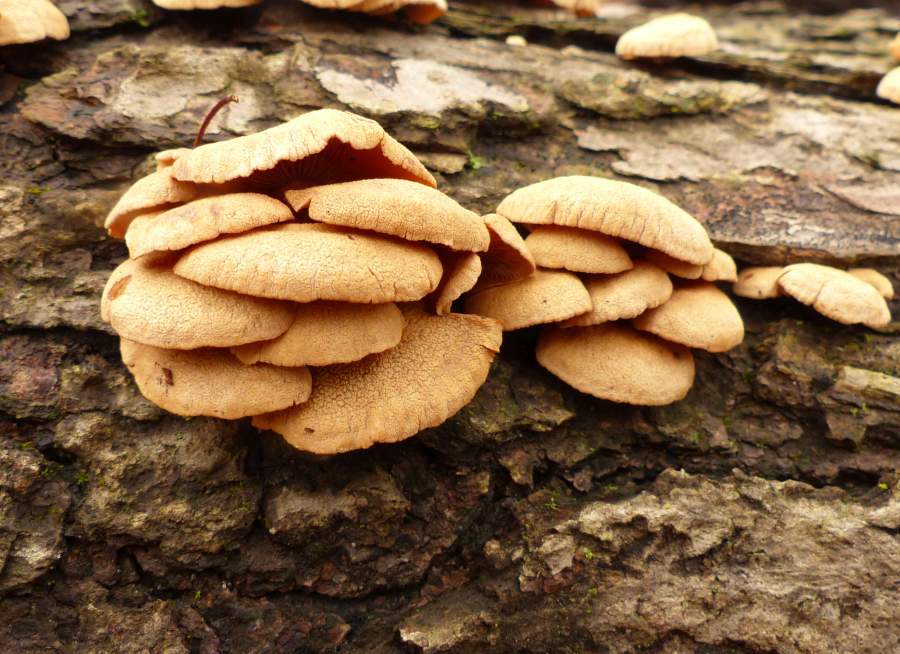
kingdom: Fungi
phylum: Basidiomycota
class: Agaricomycetes
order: Agaricales
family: Mycenaceae
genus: Panellus
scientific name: Panellus stipticus
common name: Bitter oysterling
